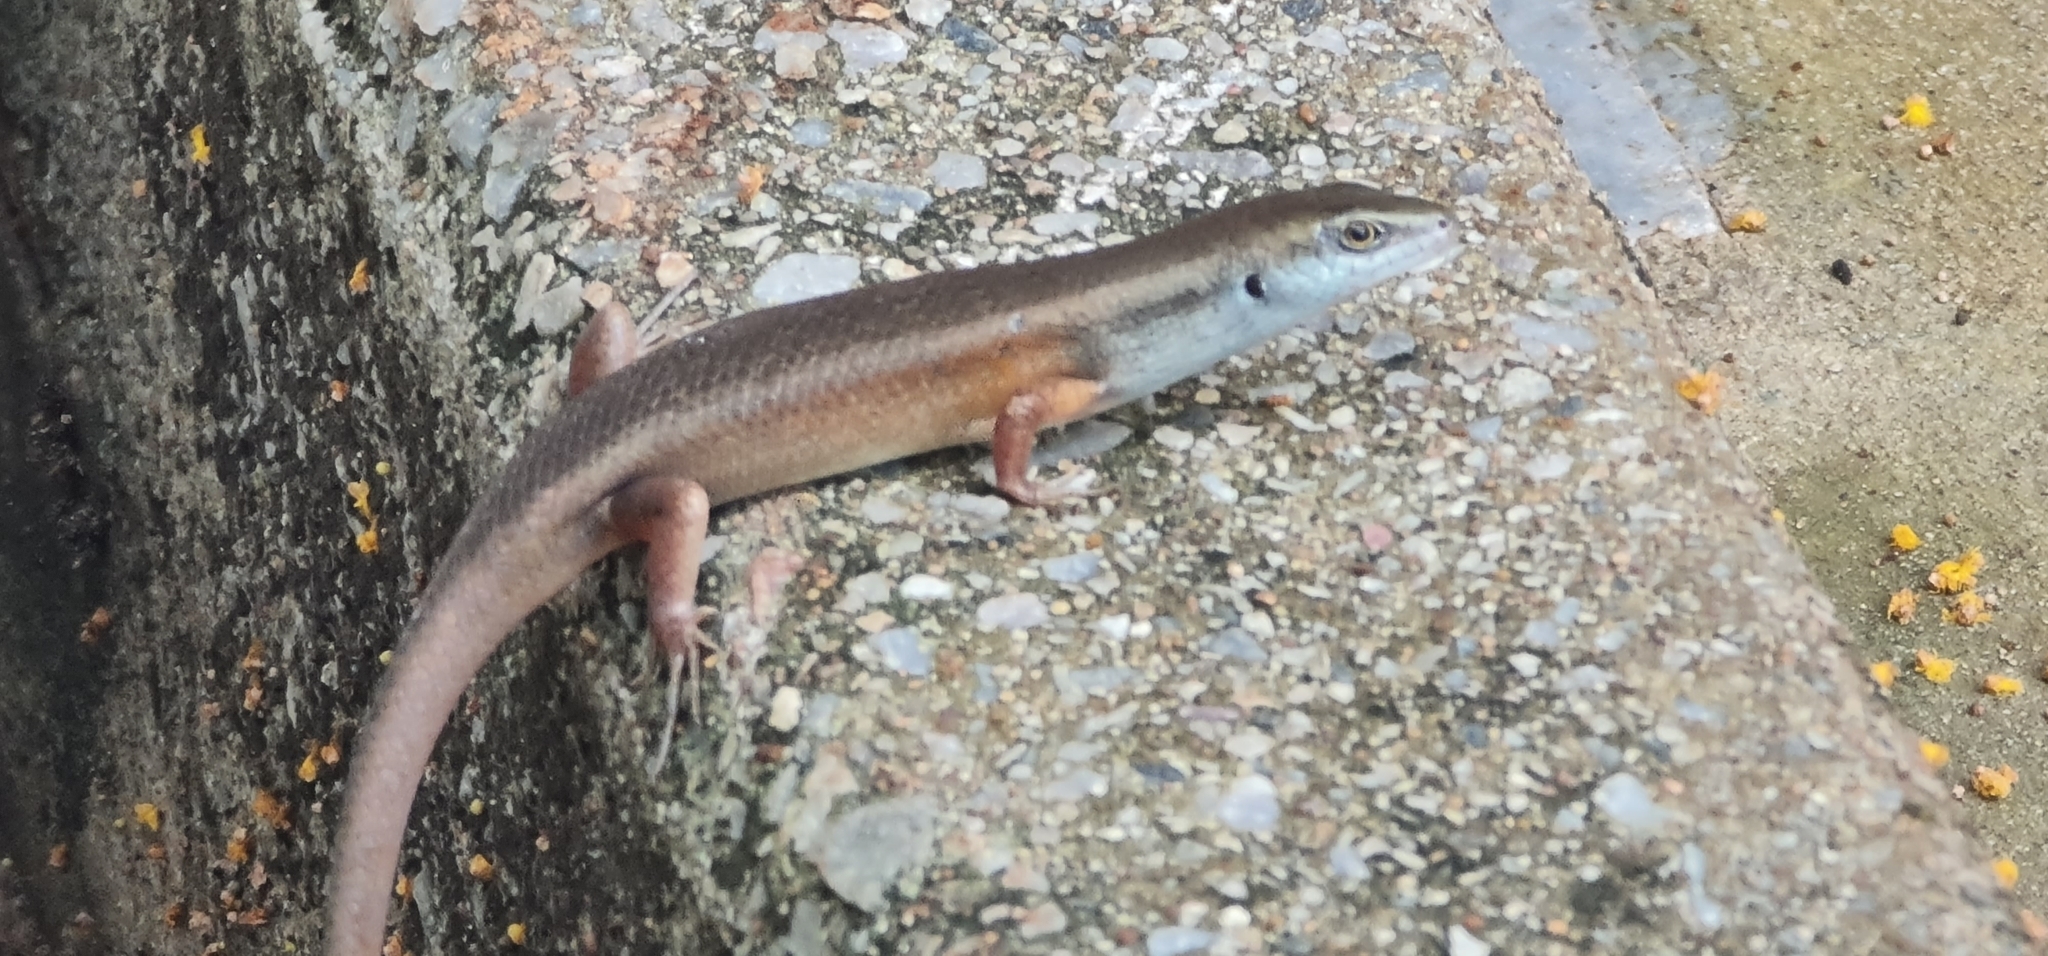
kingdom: Animalia
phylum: Chordata
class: Squamata
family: Scincidae
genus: Carlia
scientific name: Carlia sexdentata
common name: Closed-litter rainbow-skink
